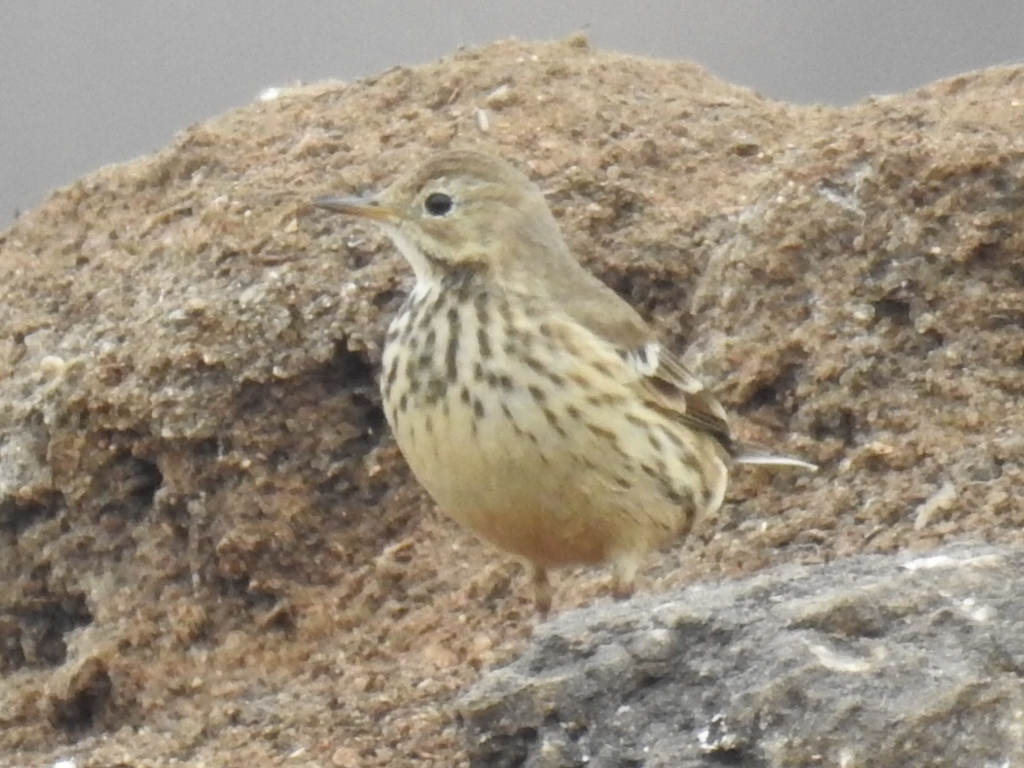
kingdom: Animalia
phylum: Chordata
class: Aves
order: Passeriformes
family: Motacillidae
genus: Anthus
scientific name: Anthus rubescens
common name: Buff-bellied pipit
